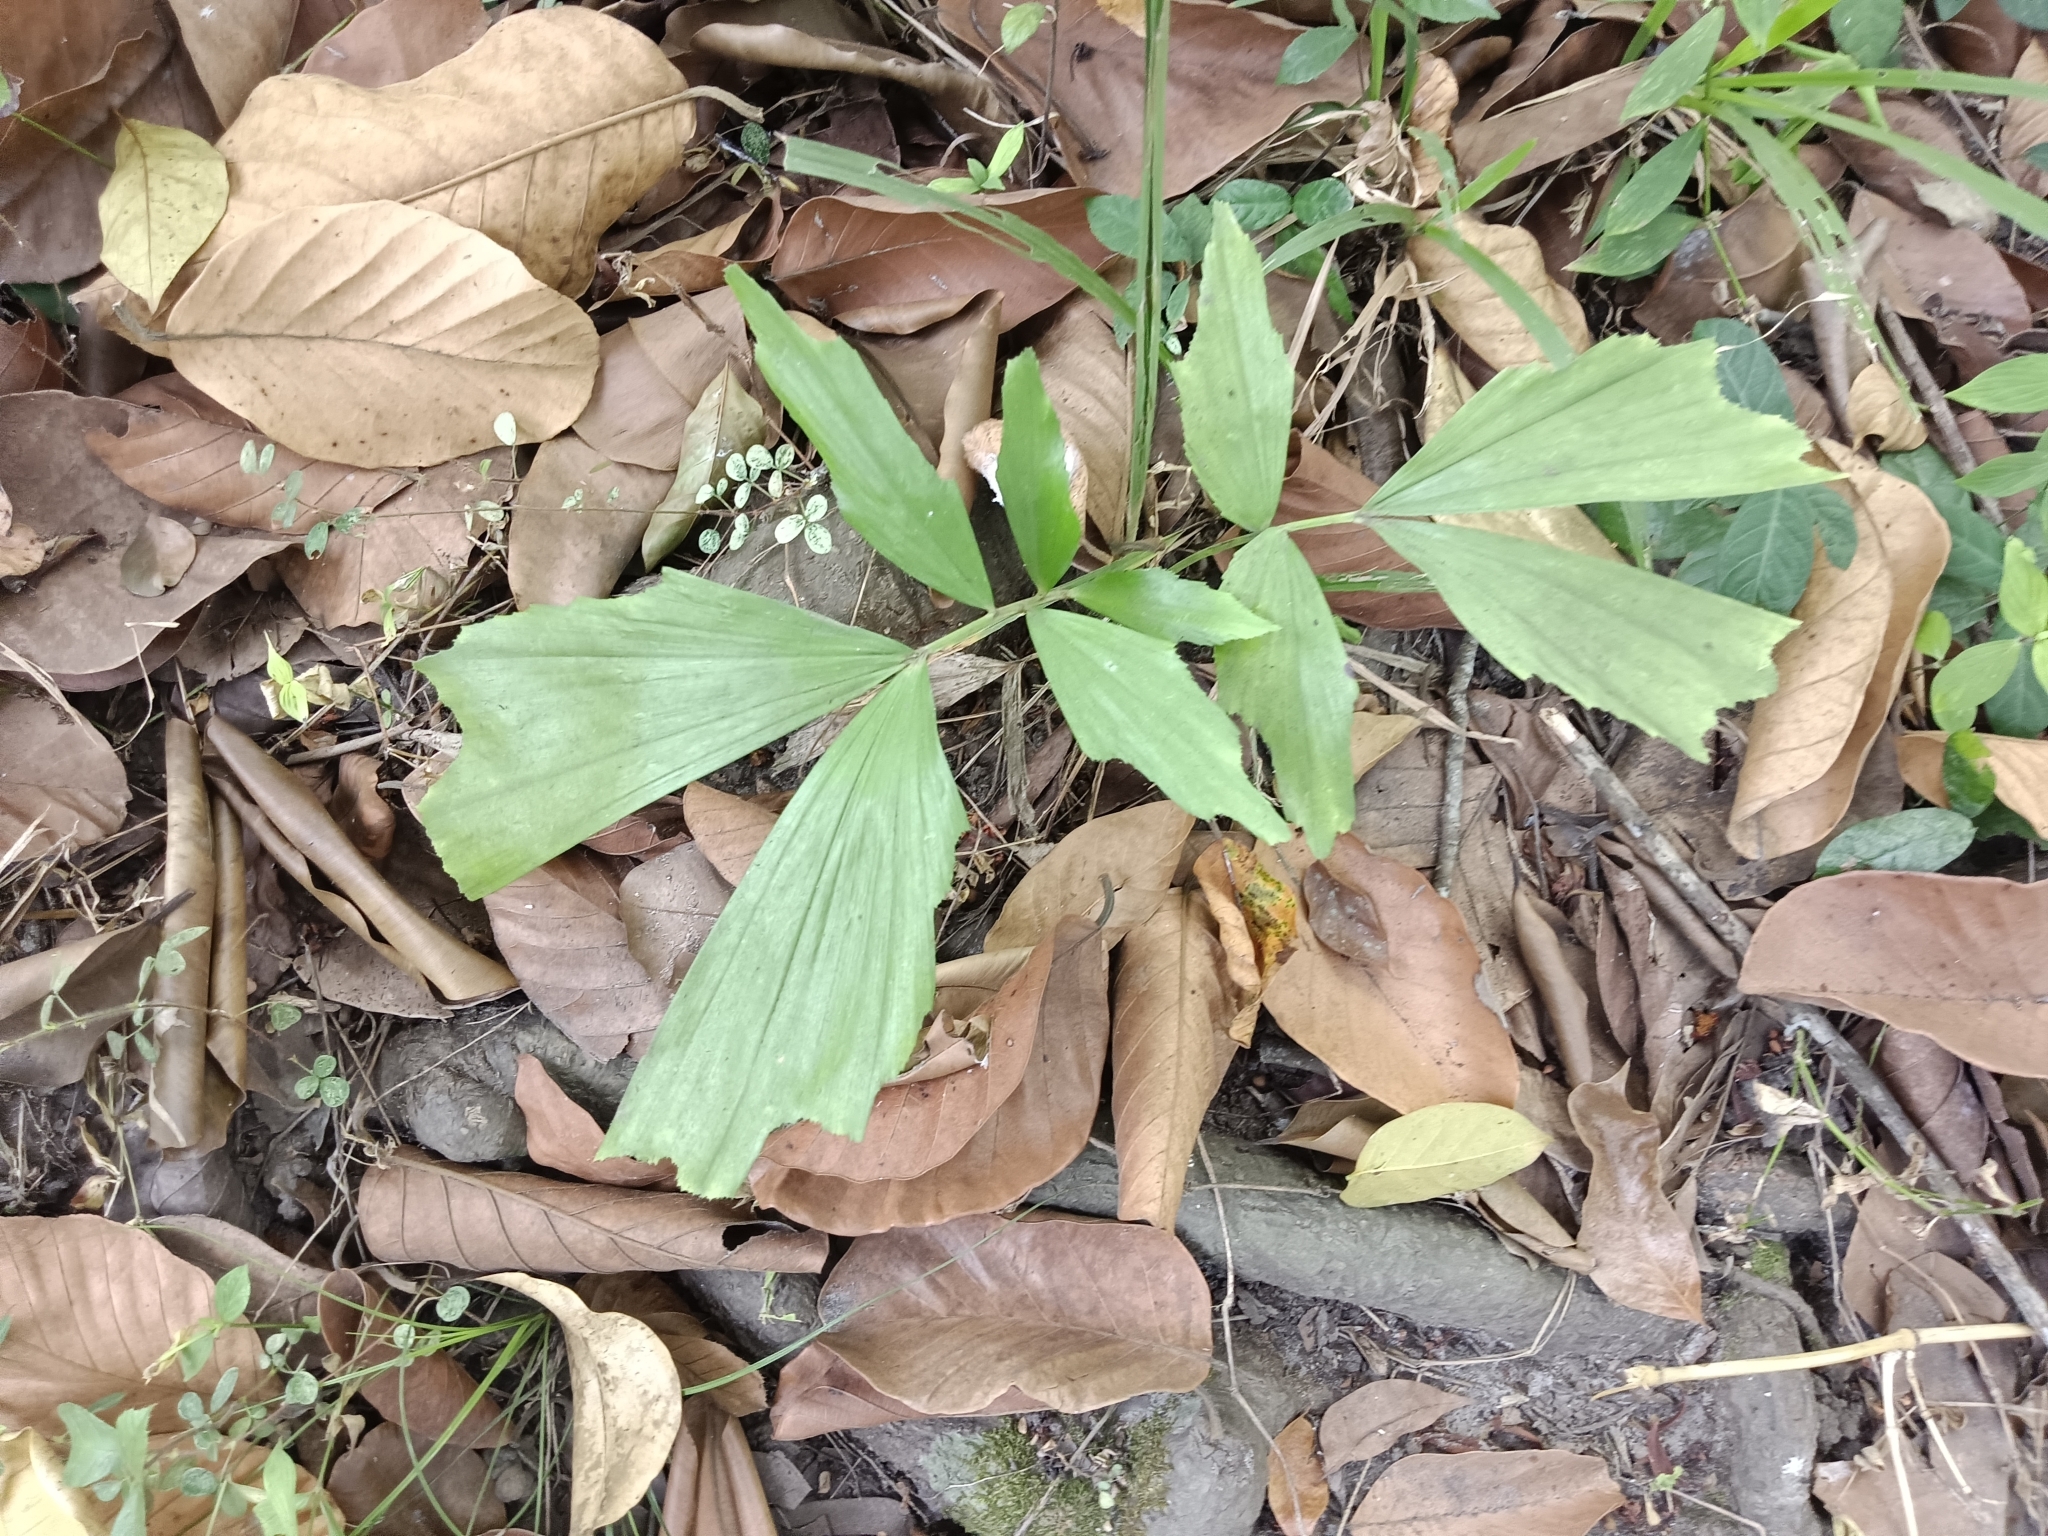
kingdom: Plantae
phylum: Tracheophyta
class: Liliopsida
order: Arecales
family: Arecaceae
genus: Caryota
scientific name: Caryota urens
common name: Jaggery palm
